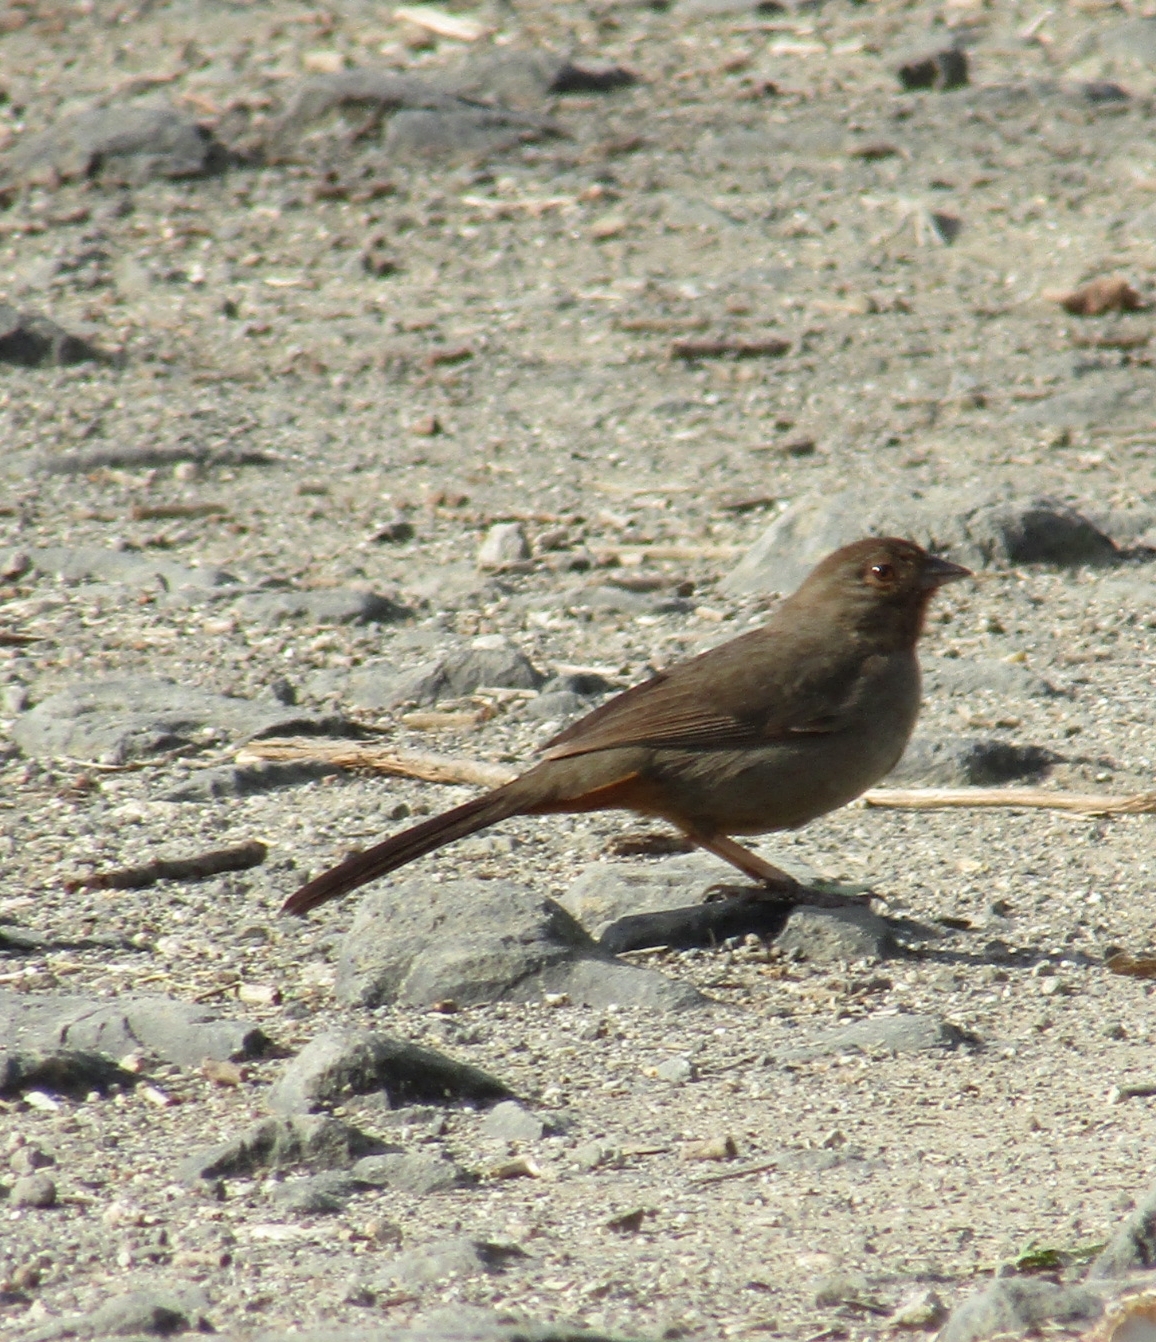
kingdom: Animalia
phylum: Chordata
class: Aves
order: Passeriformes
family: Passerellidae
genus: Melozone
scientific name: Melozone crissalis
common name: California towhee
